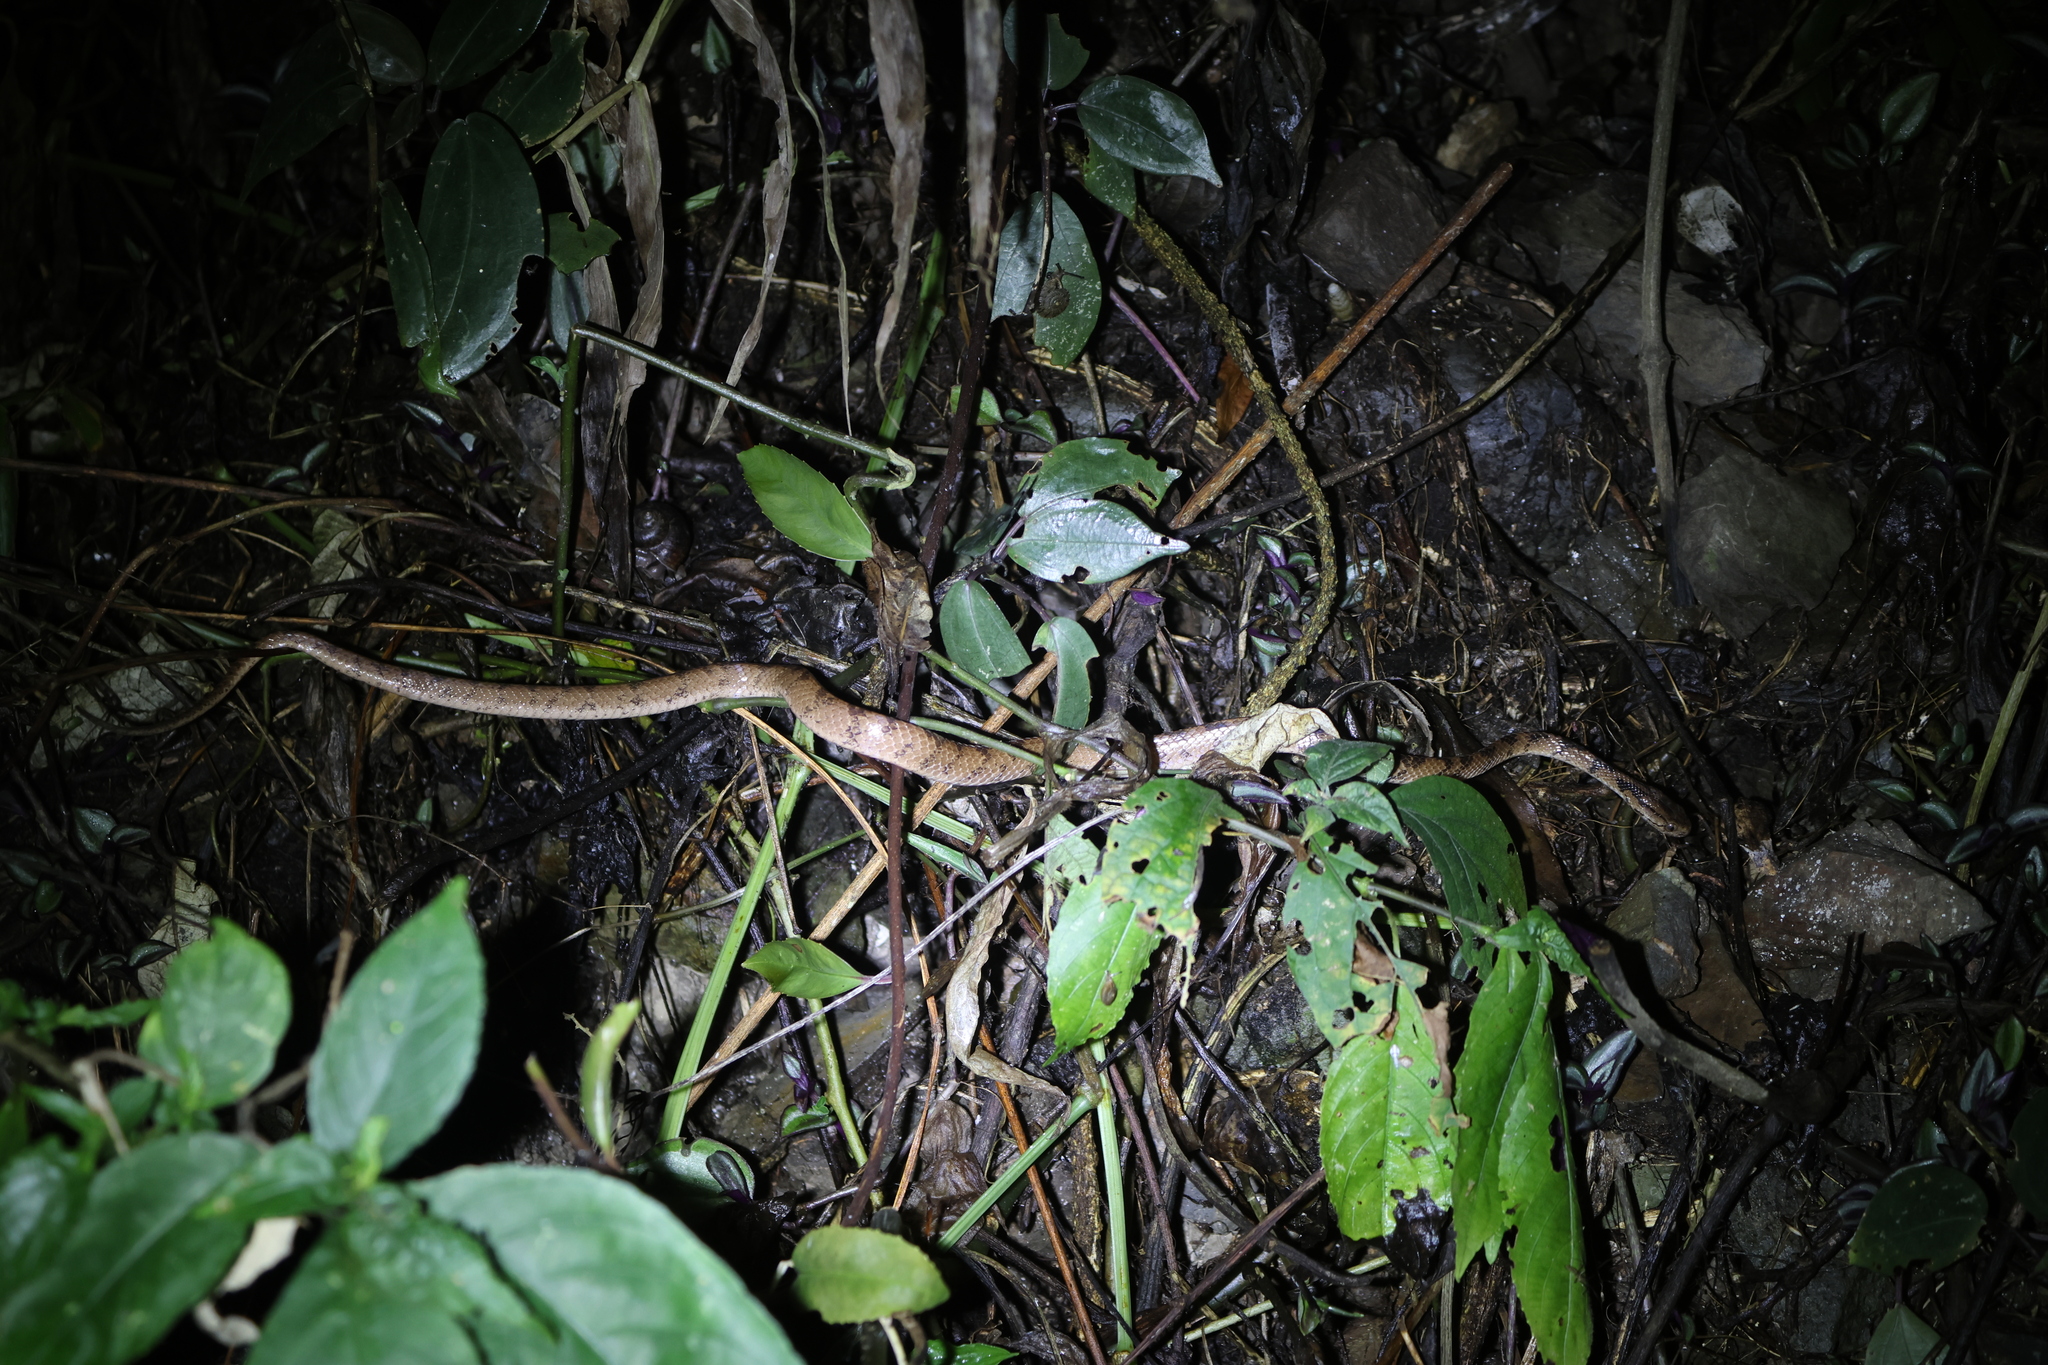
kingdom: Animalia
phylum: Chordata
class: Squamata
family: Pareidae
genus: Pareas
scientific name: Pareas komaii
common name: Formosa slug snake
